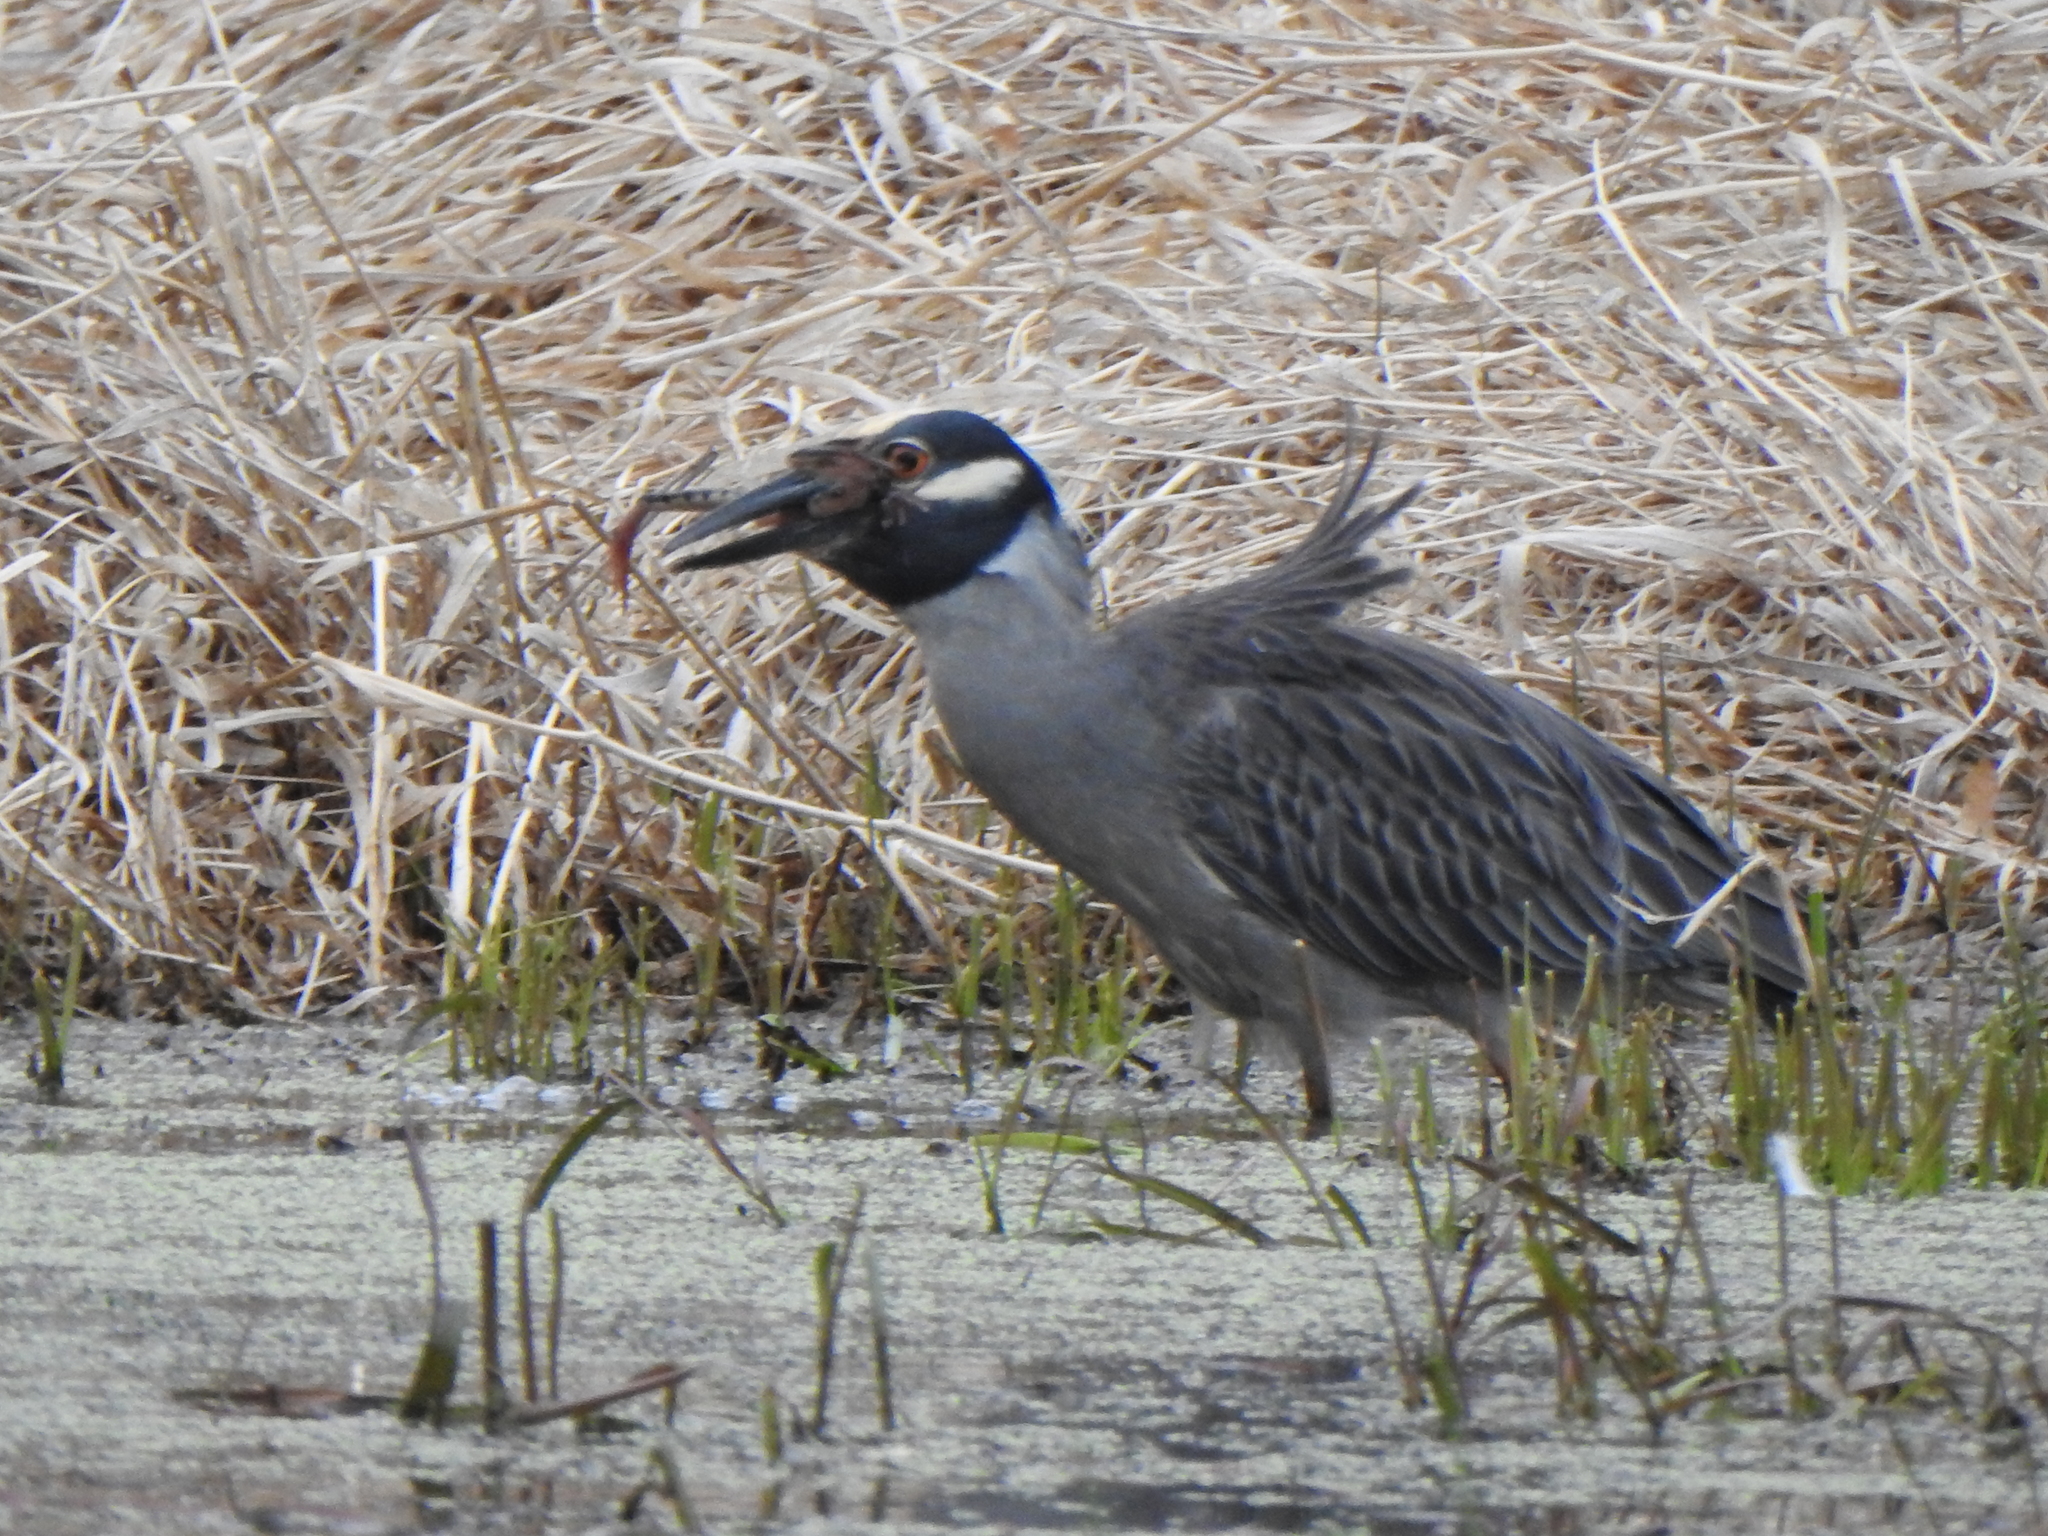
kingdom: Animalia
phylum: Chordata
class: Aves
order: Pelecaniformes
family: Ardeidae
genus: Nyctanassa
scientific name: Nyctanassa violacea
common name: Yellow-crowned night heron
